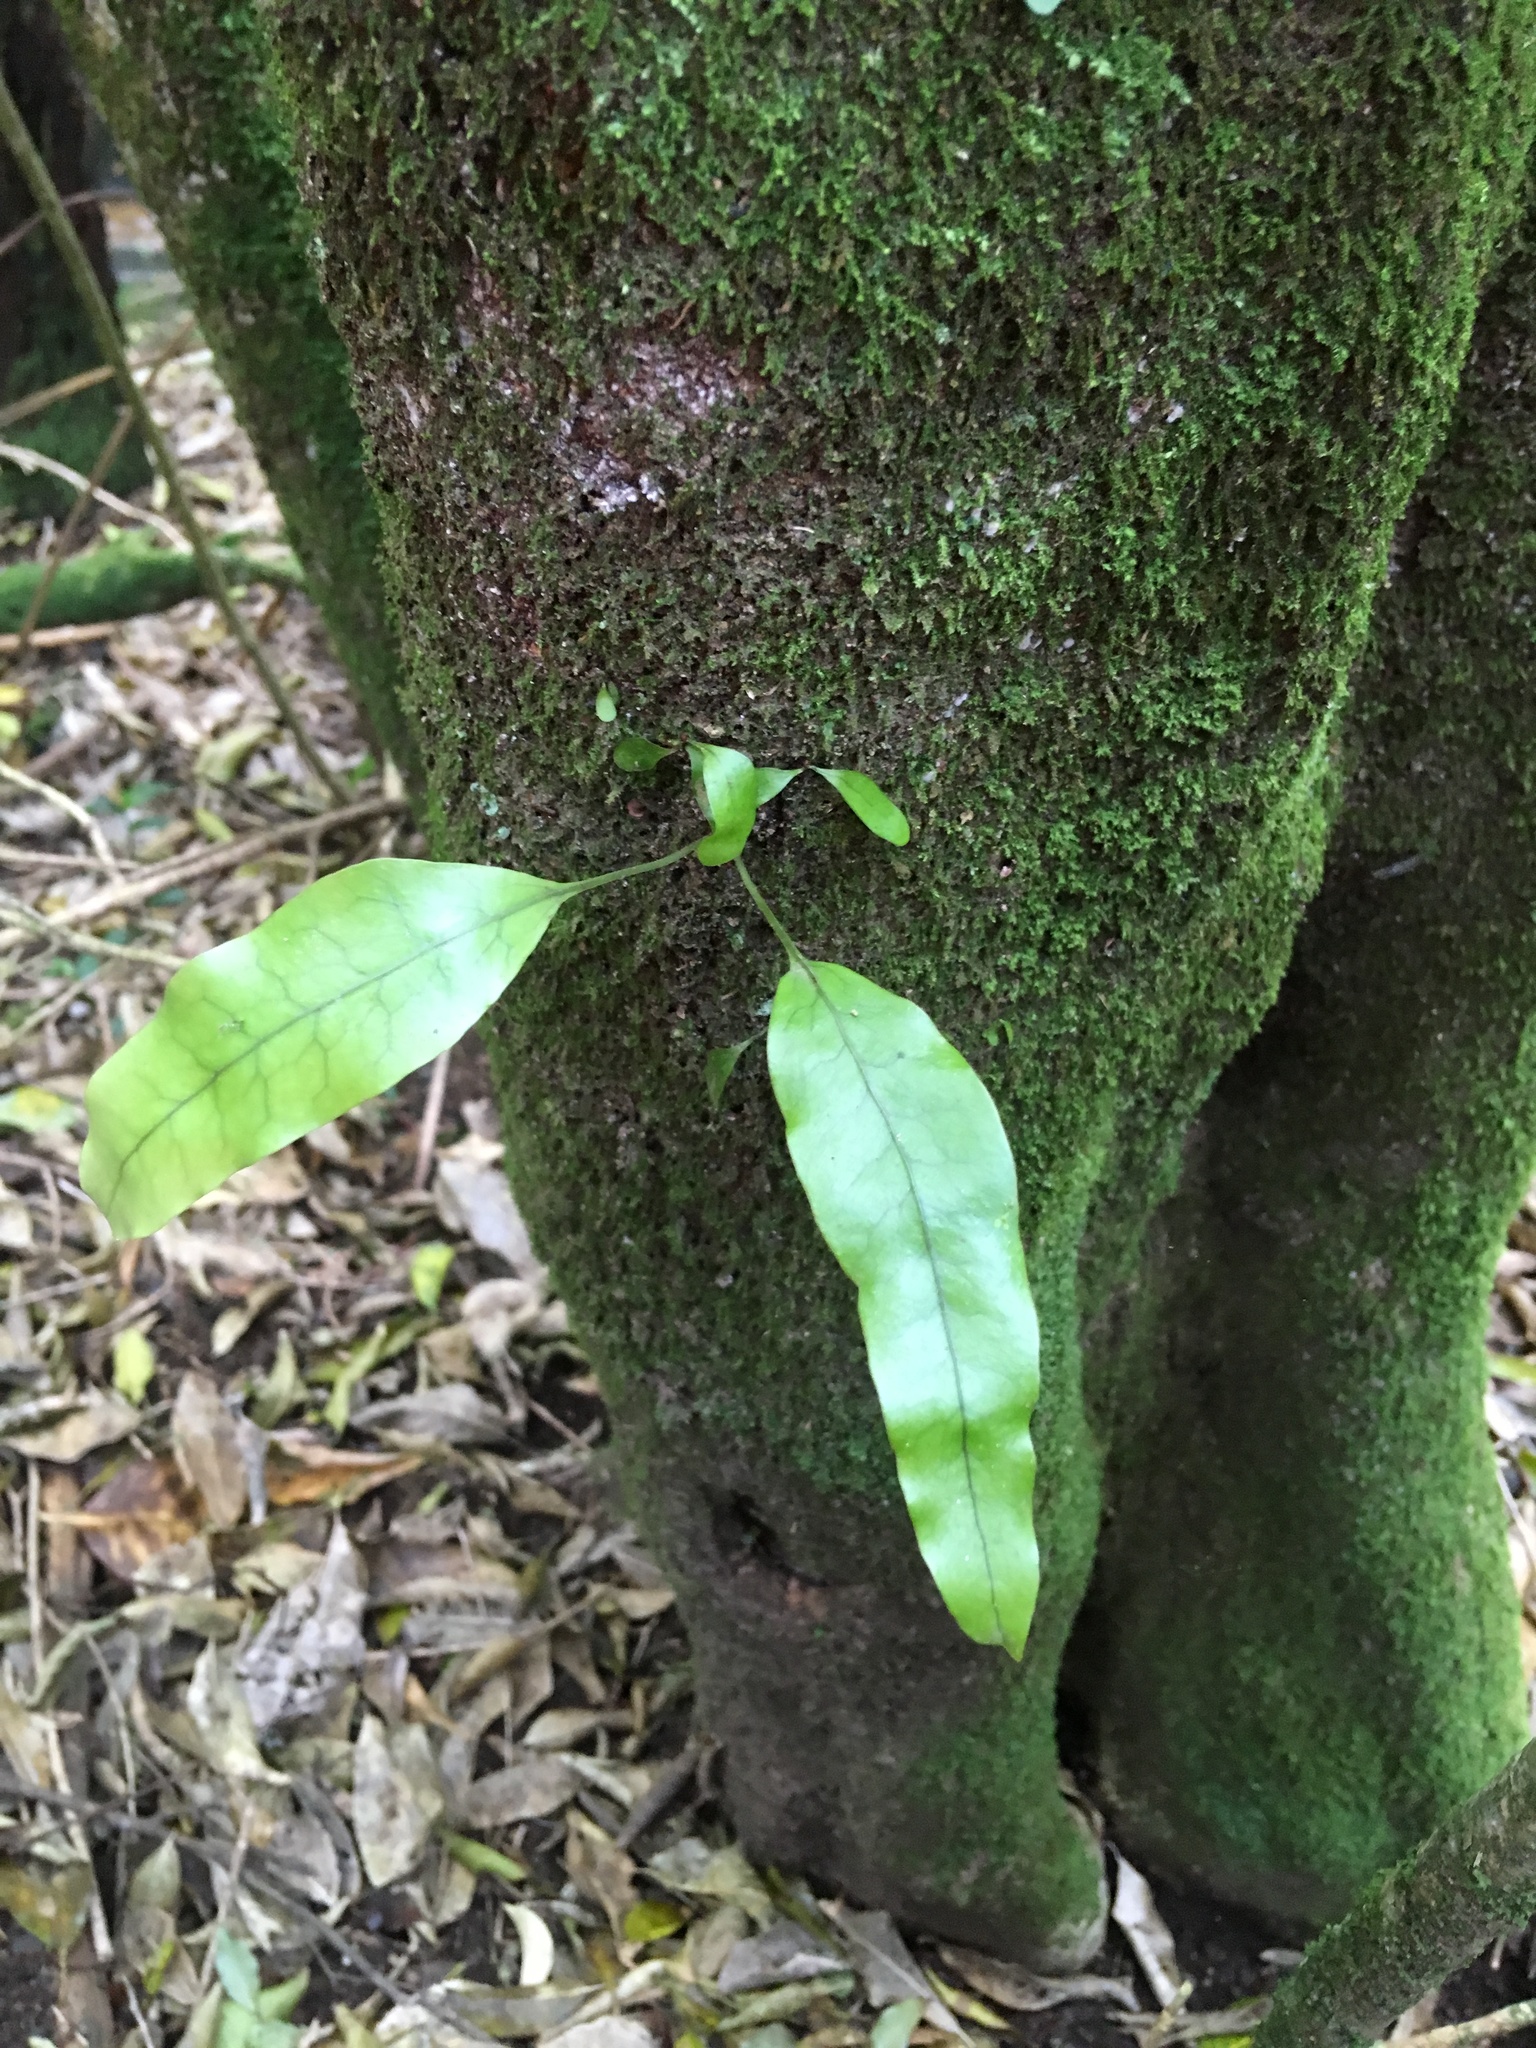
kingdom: Plantae
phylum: Tracheophyta
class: Polypodiopsida
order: Polypodiales
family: Polypodiaceae
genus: Lecanopteris
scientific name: Lecanopteris pustulata
